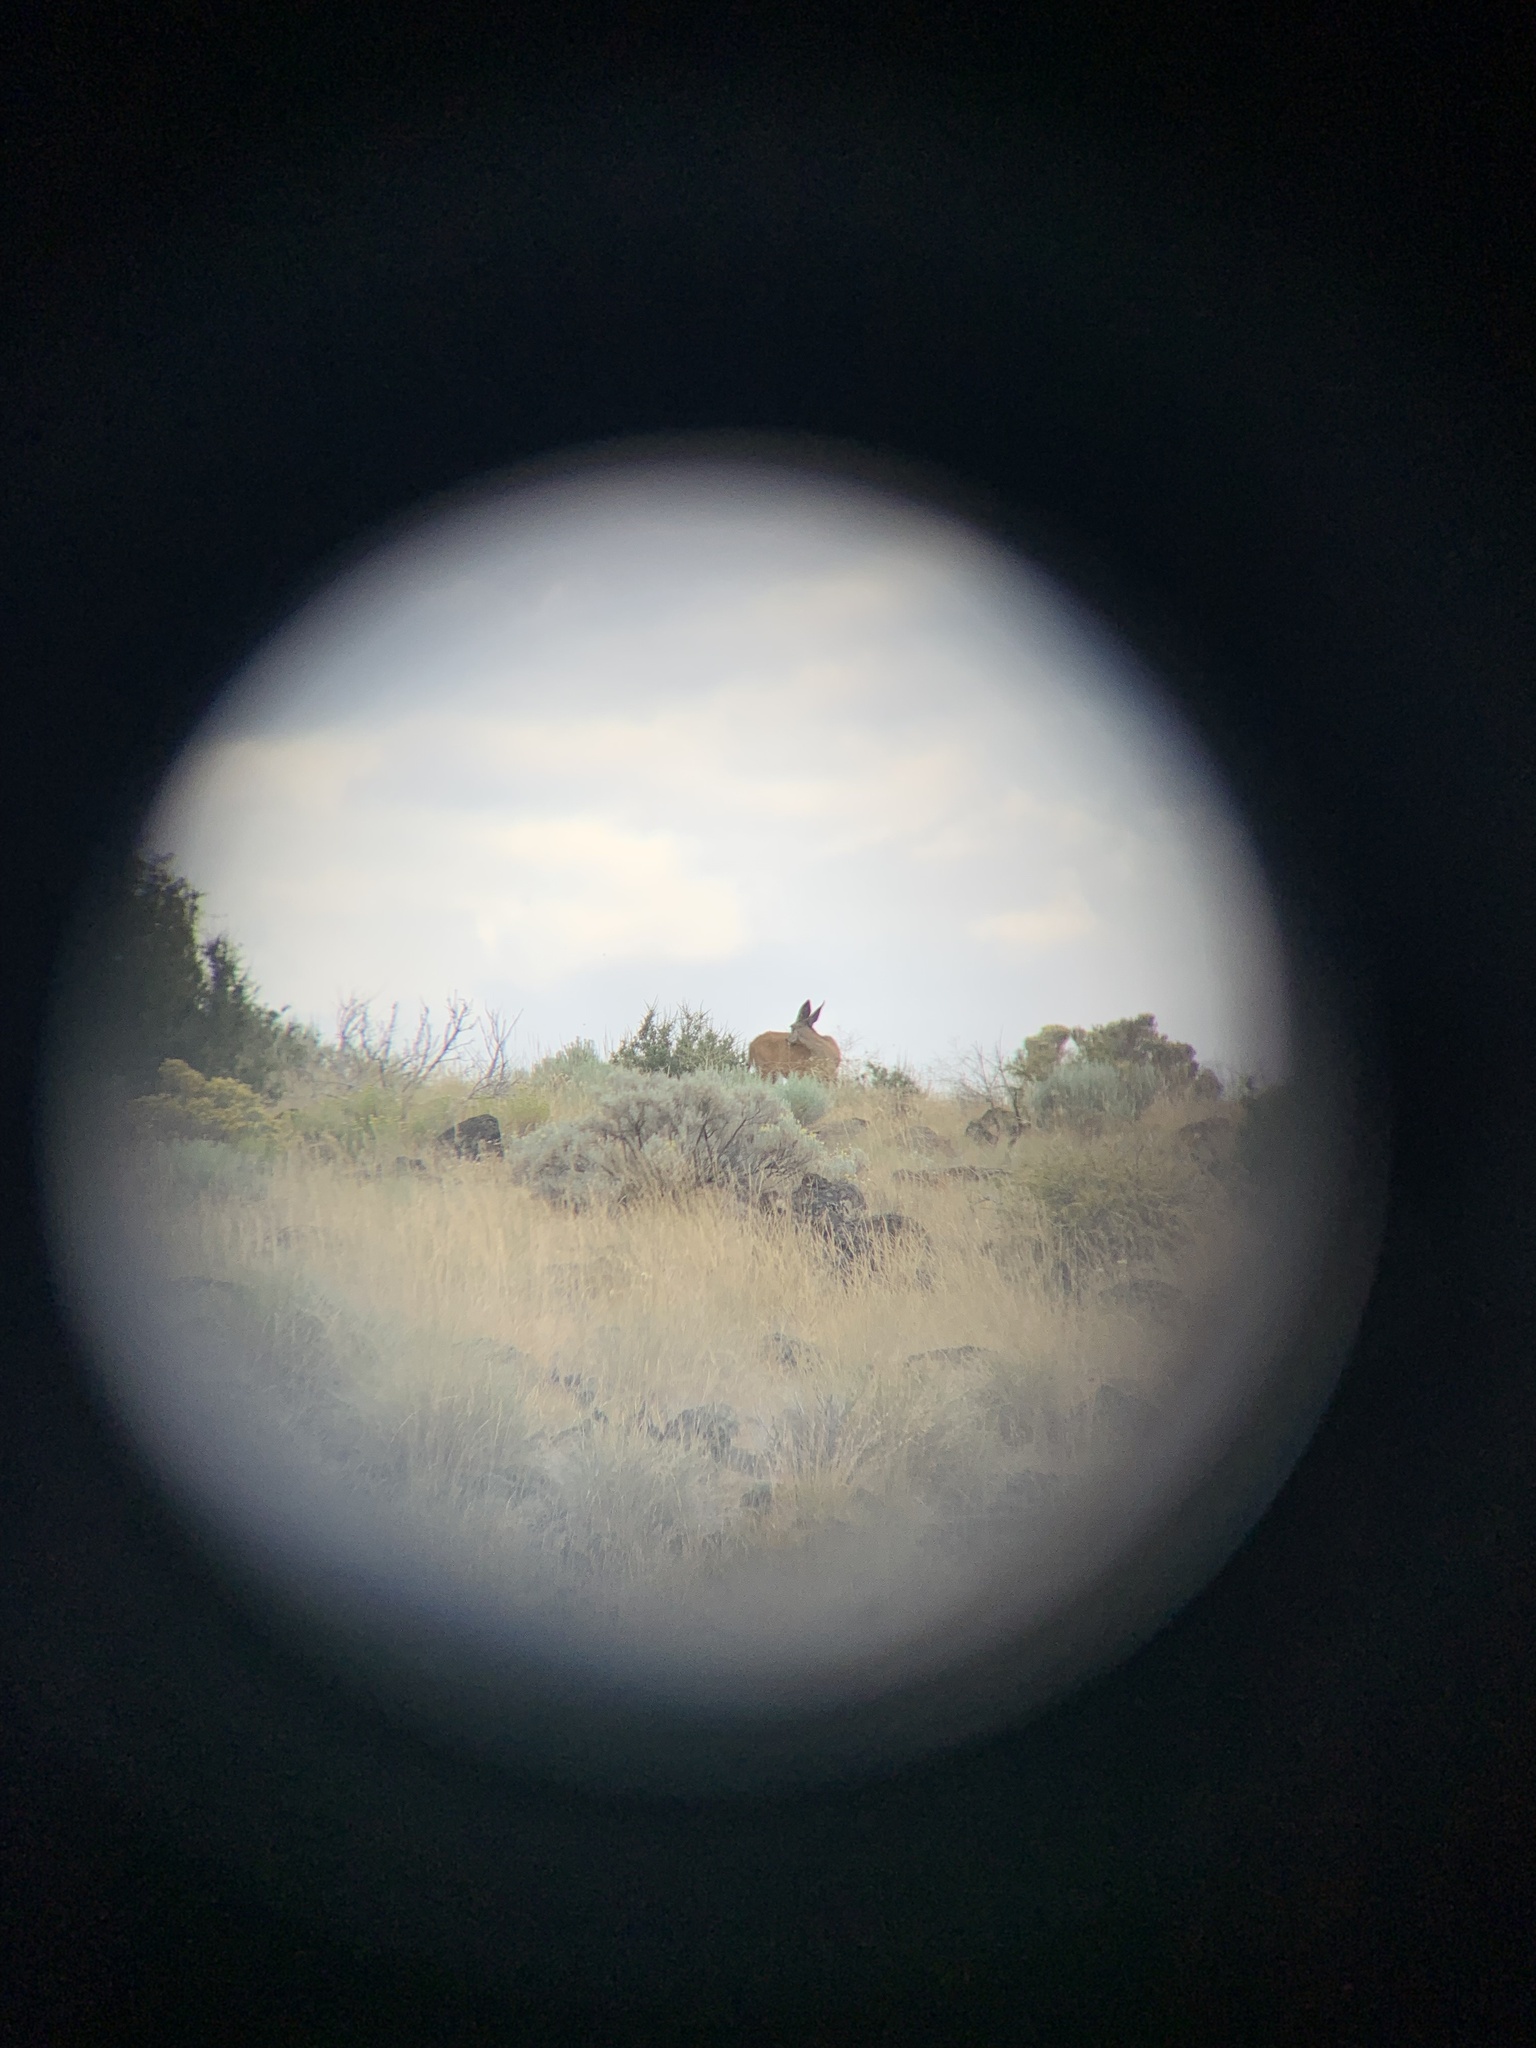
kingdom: Animalia
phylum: Chordata
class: Mammalia
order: Artiodactyla
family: Cervidae
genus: Odocoileus
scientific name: Odocoileus hemionus
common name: Mule deer
